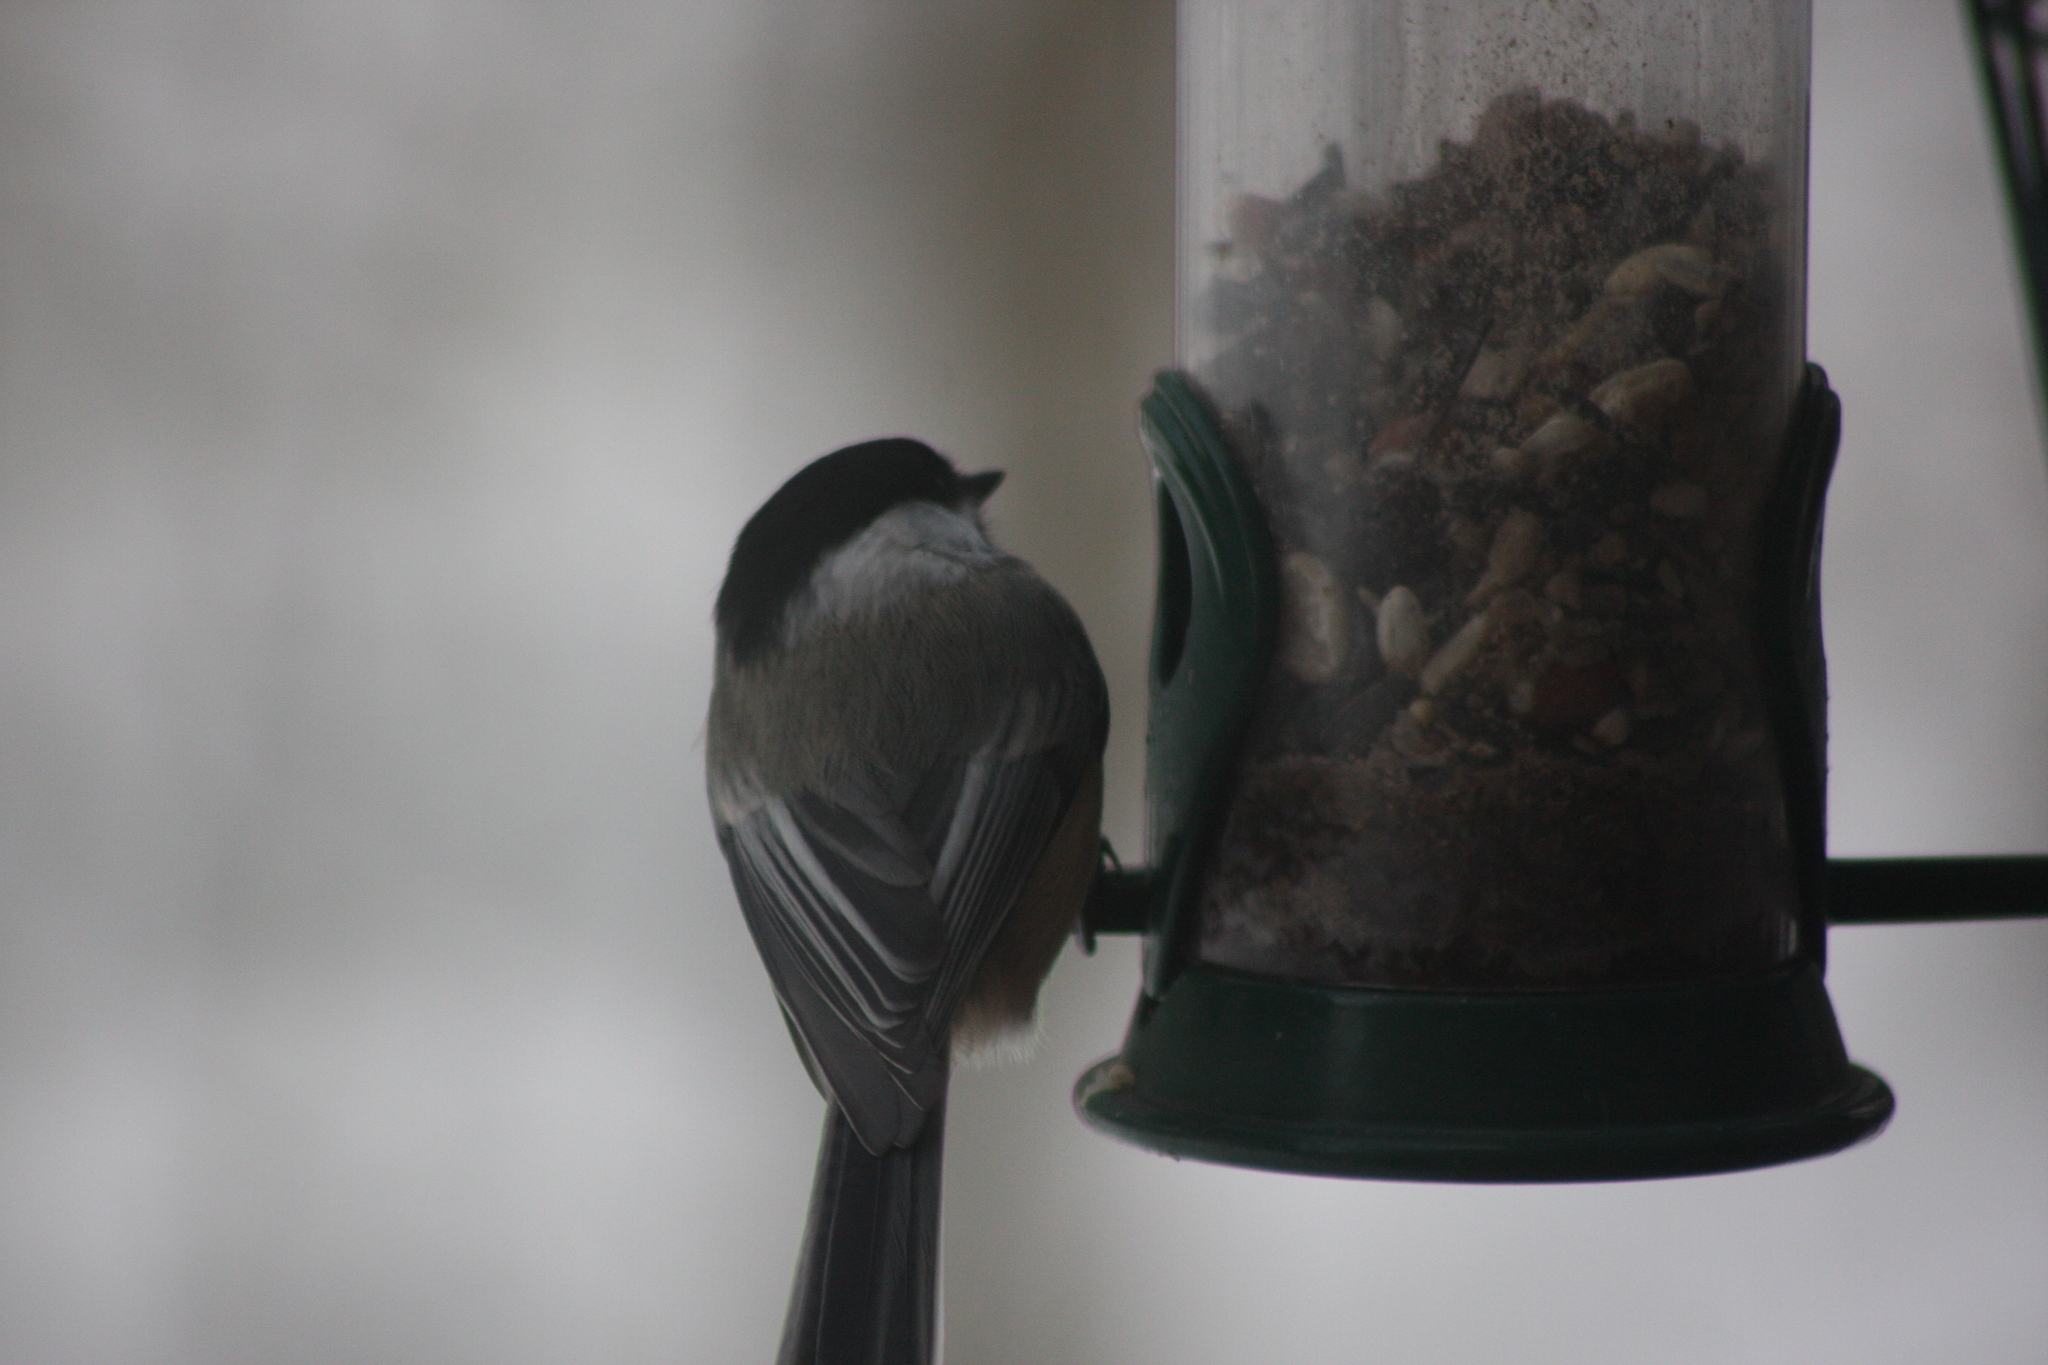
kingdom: Animalia
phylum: Chordata
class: Aves
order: Passeriformes
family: Paridae
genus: Poecile
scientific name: Poecile atricapillus
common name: Black-capped chickadee
